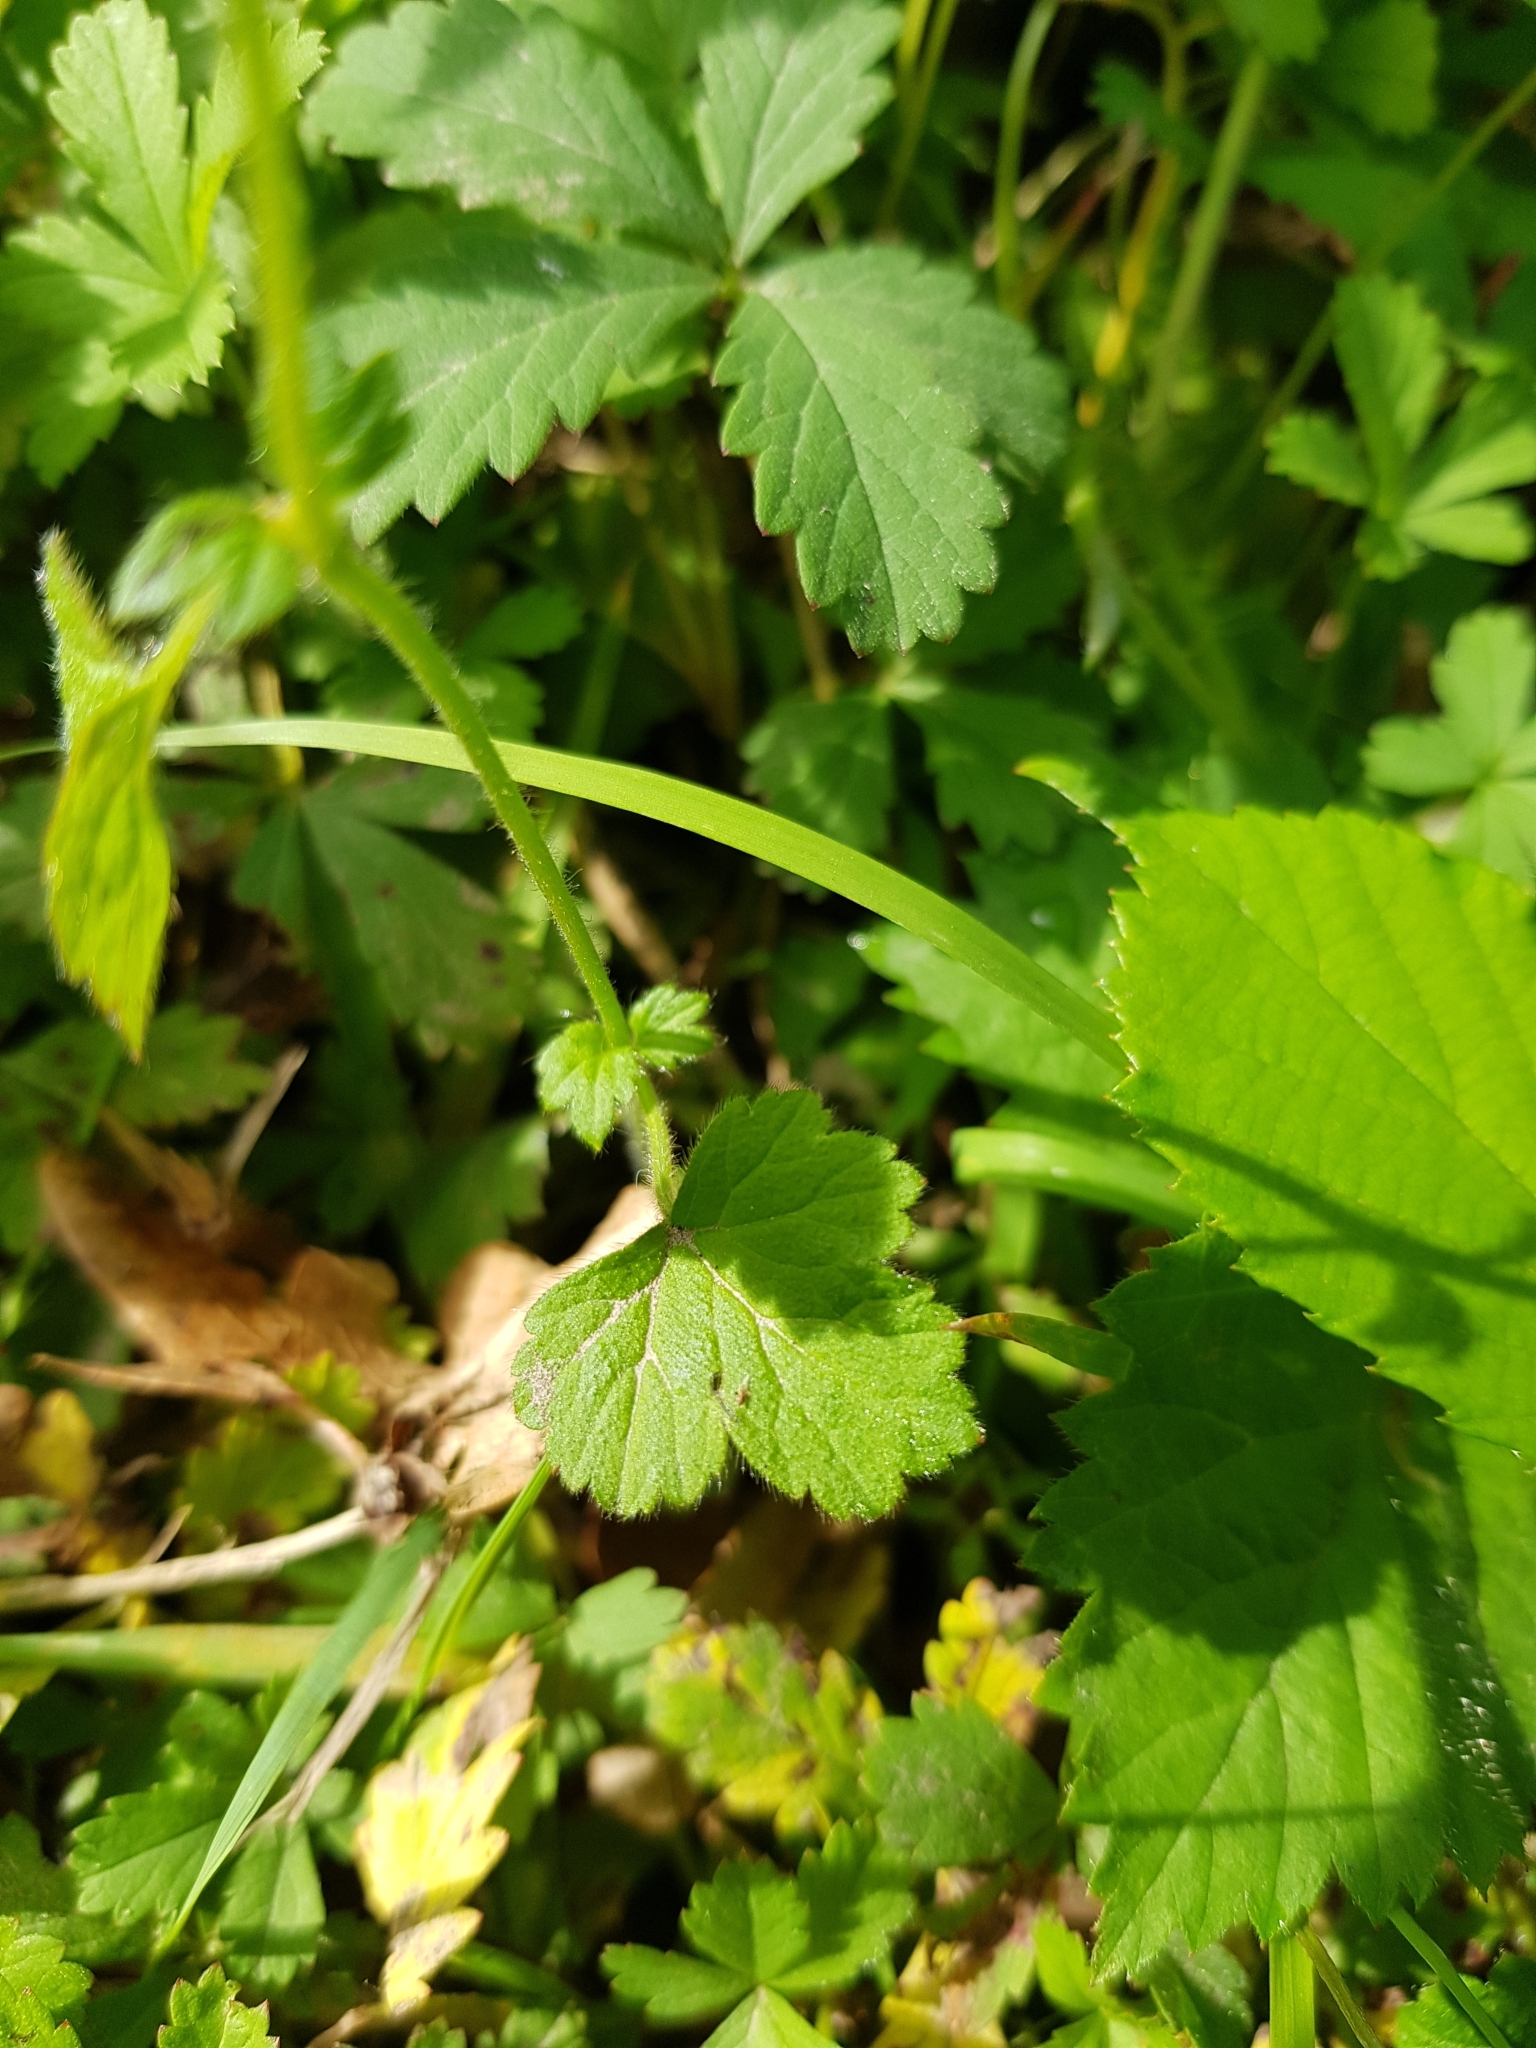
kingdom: Plantae
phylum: Tracheophyta
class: Magnoliopsida
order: Rosales
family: Rosaceae
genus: Geum
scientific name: Geum urbanum
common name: Wood avens
